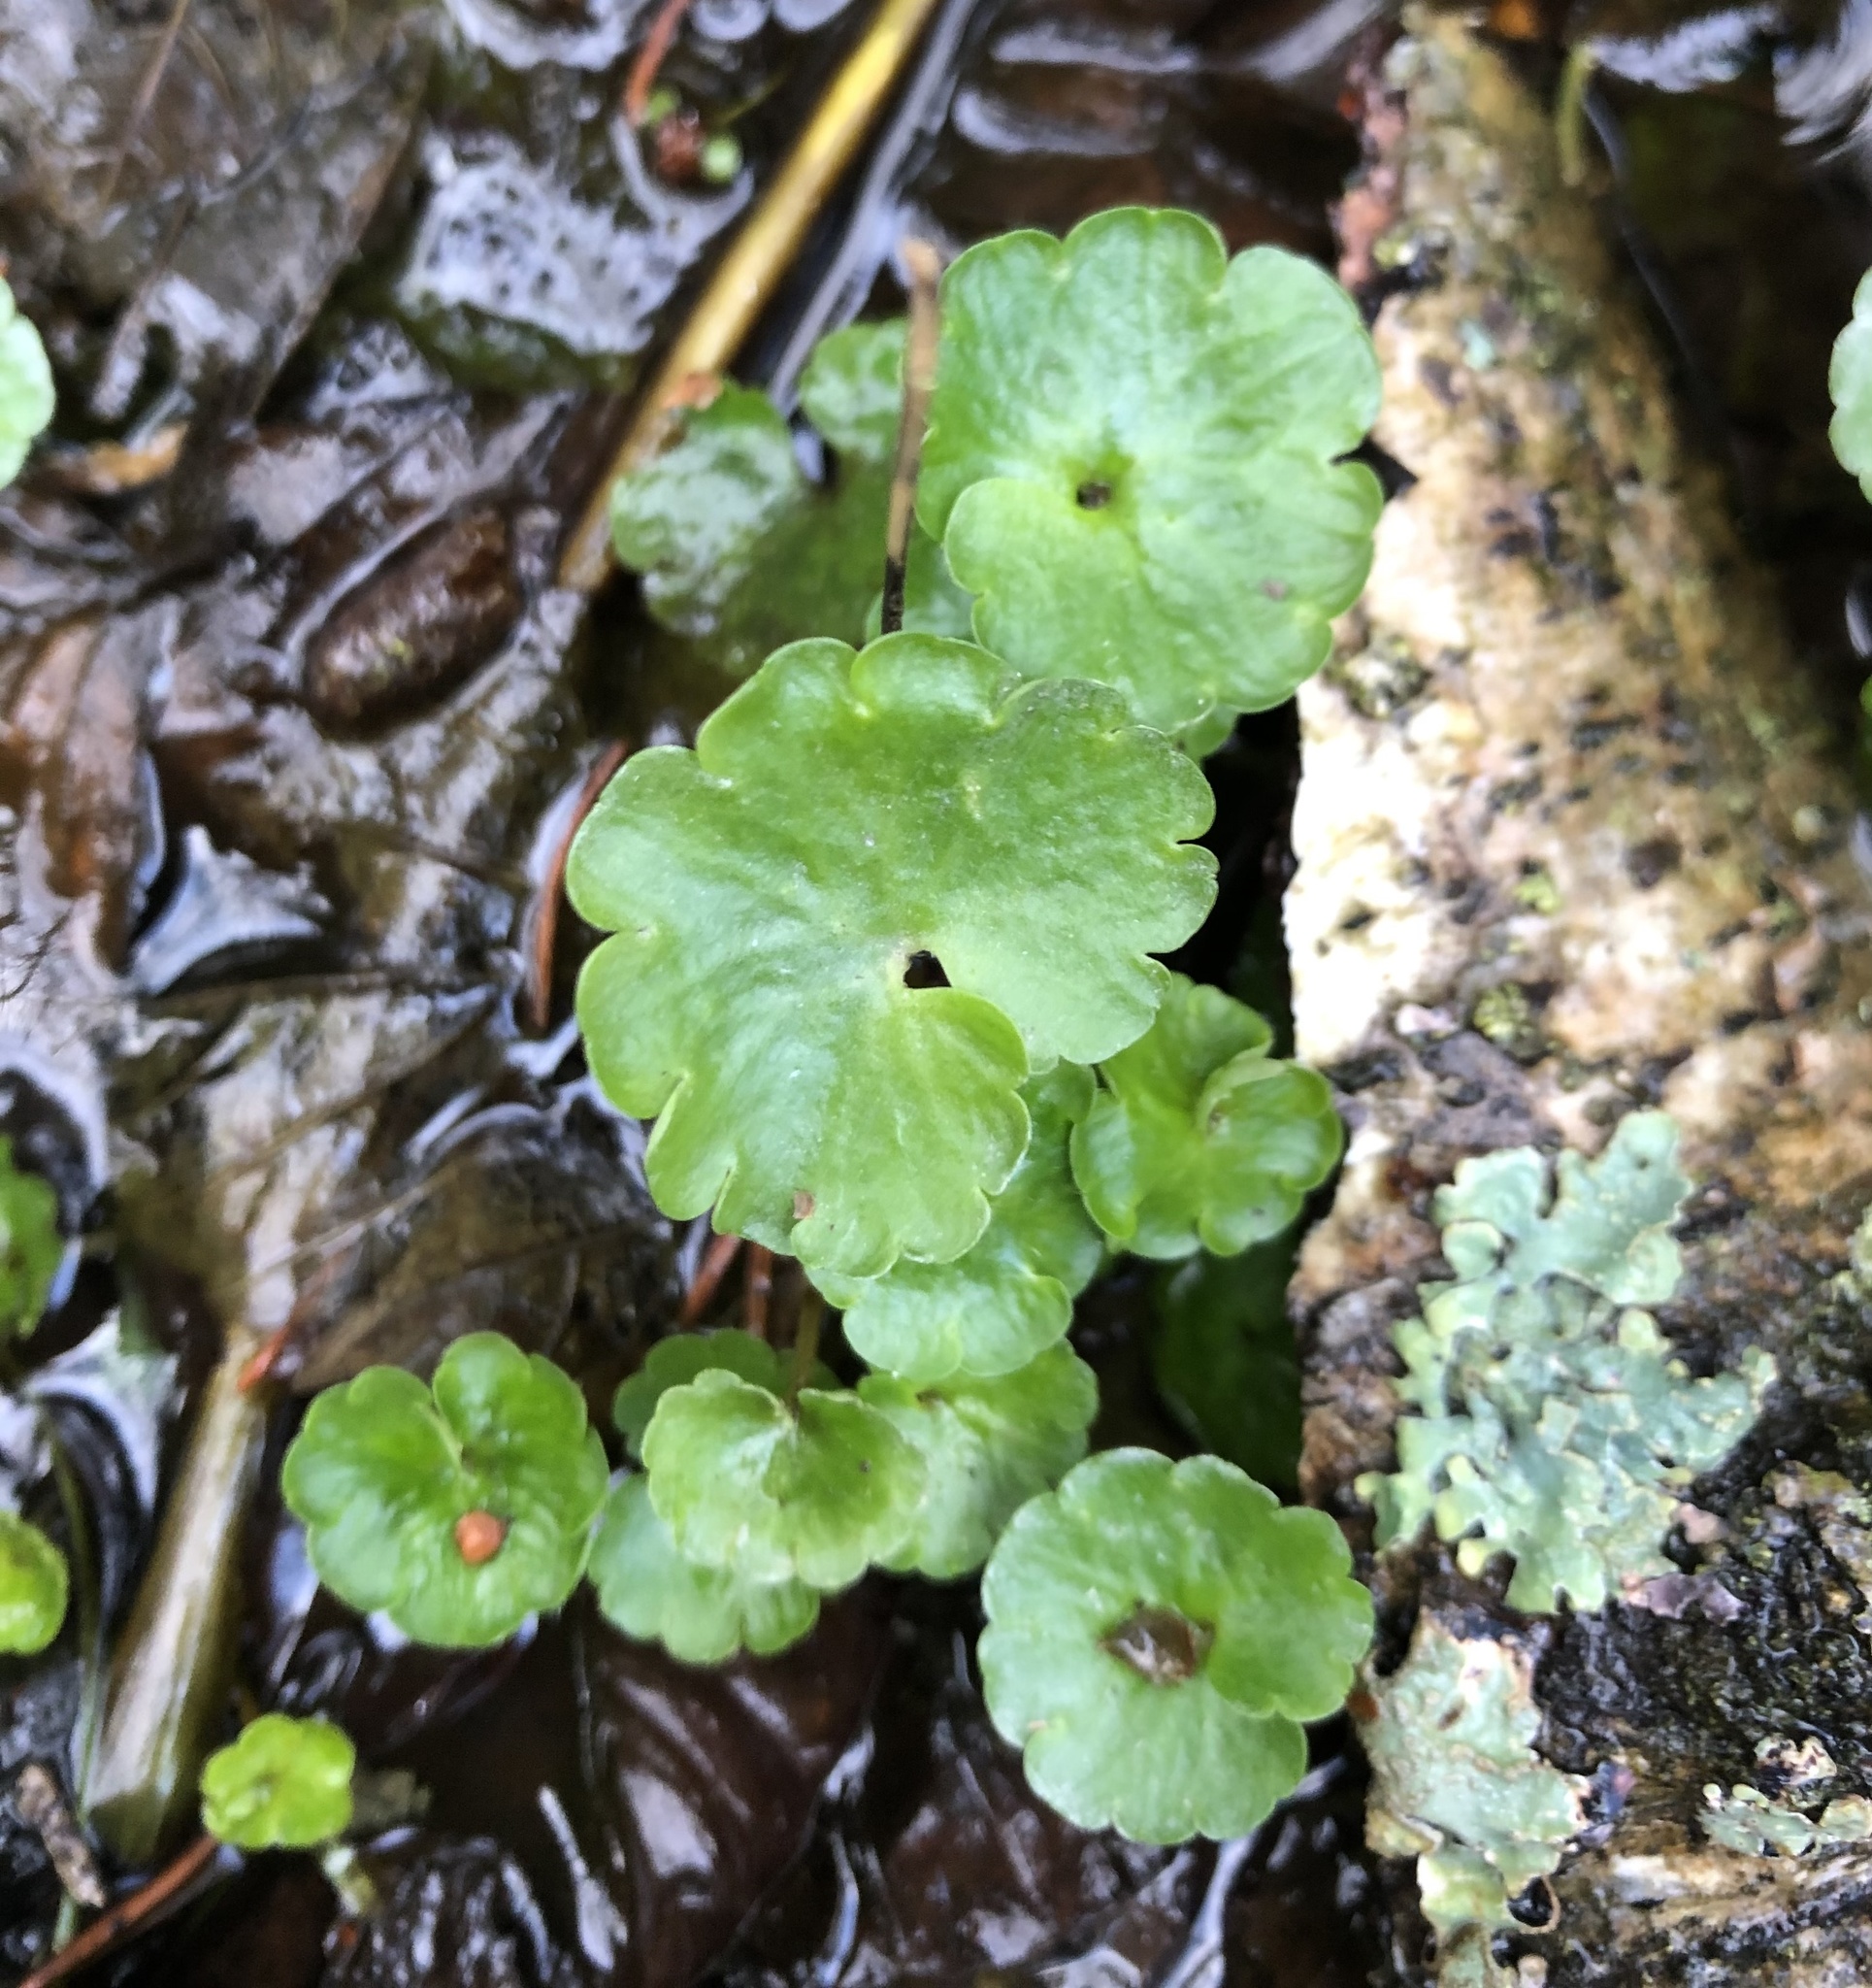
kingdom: Plantae
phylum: Tracheophyta
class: Magnoliopsida
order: Saxifragales
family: Saxifragaceae
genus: Chrysosplenium
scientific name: Chrysosplenium alternifolium
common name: Alternate-leaved golden-saxifrage
